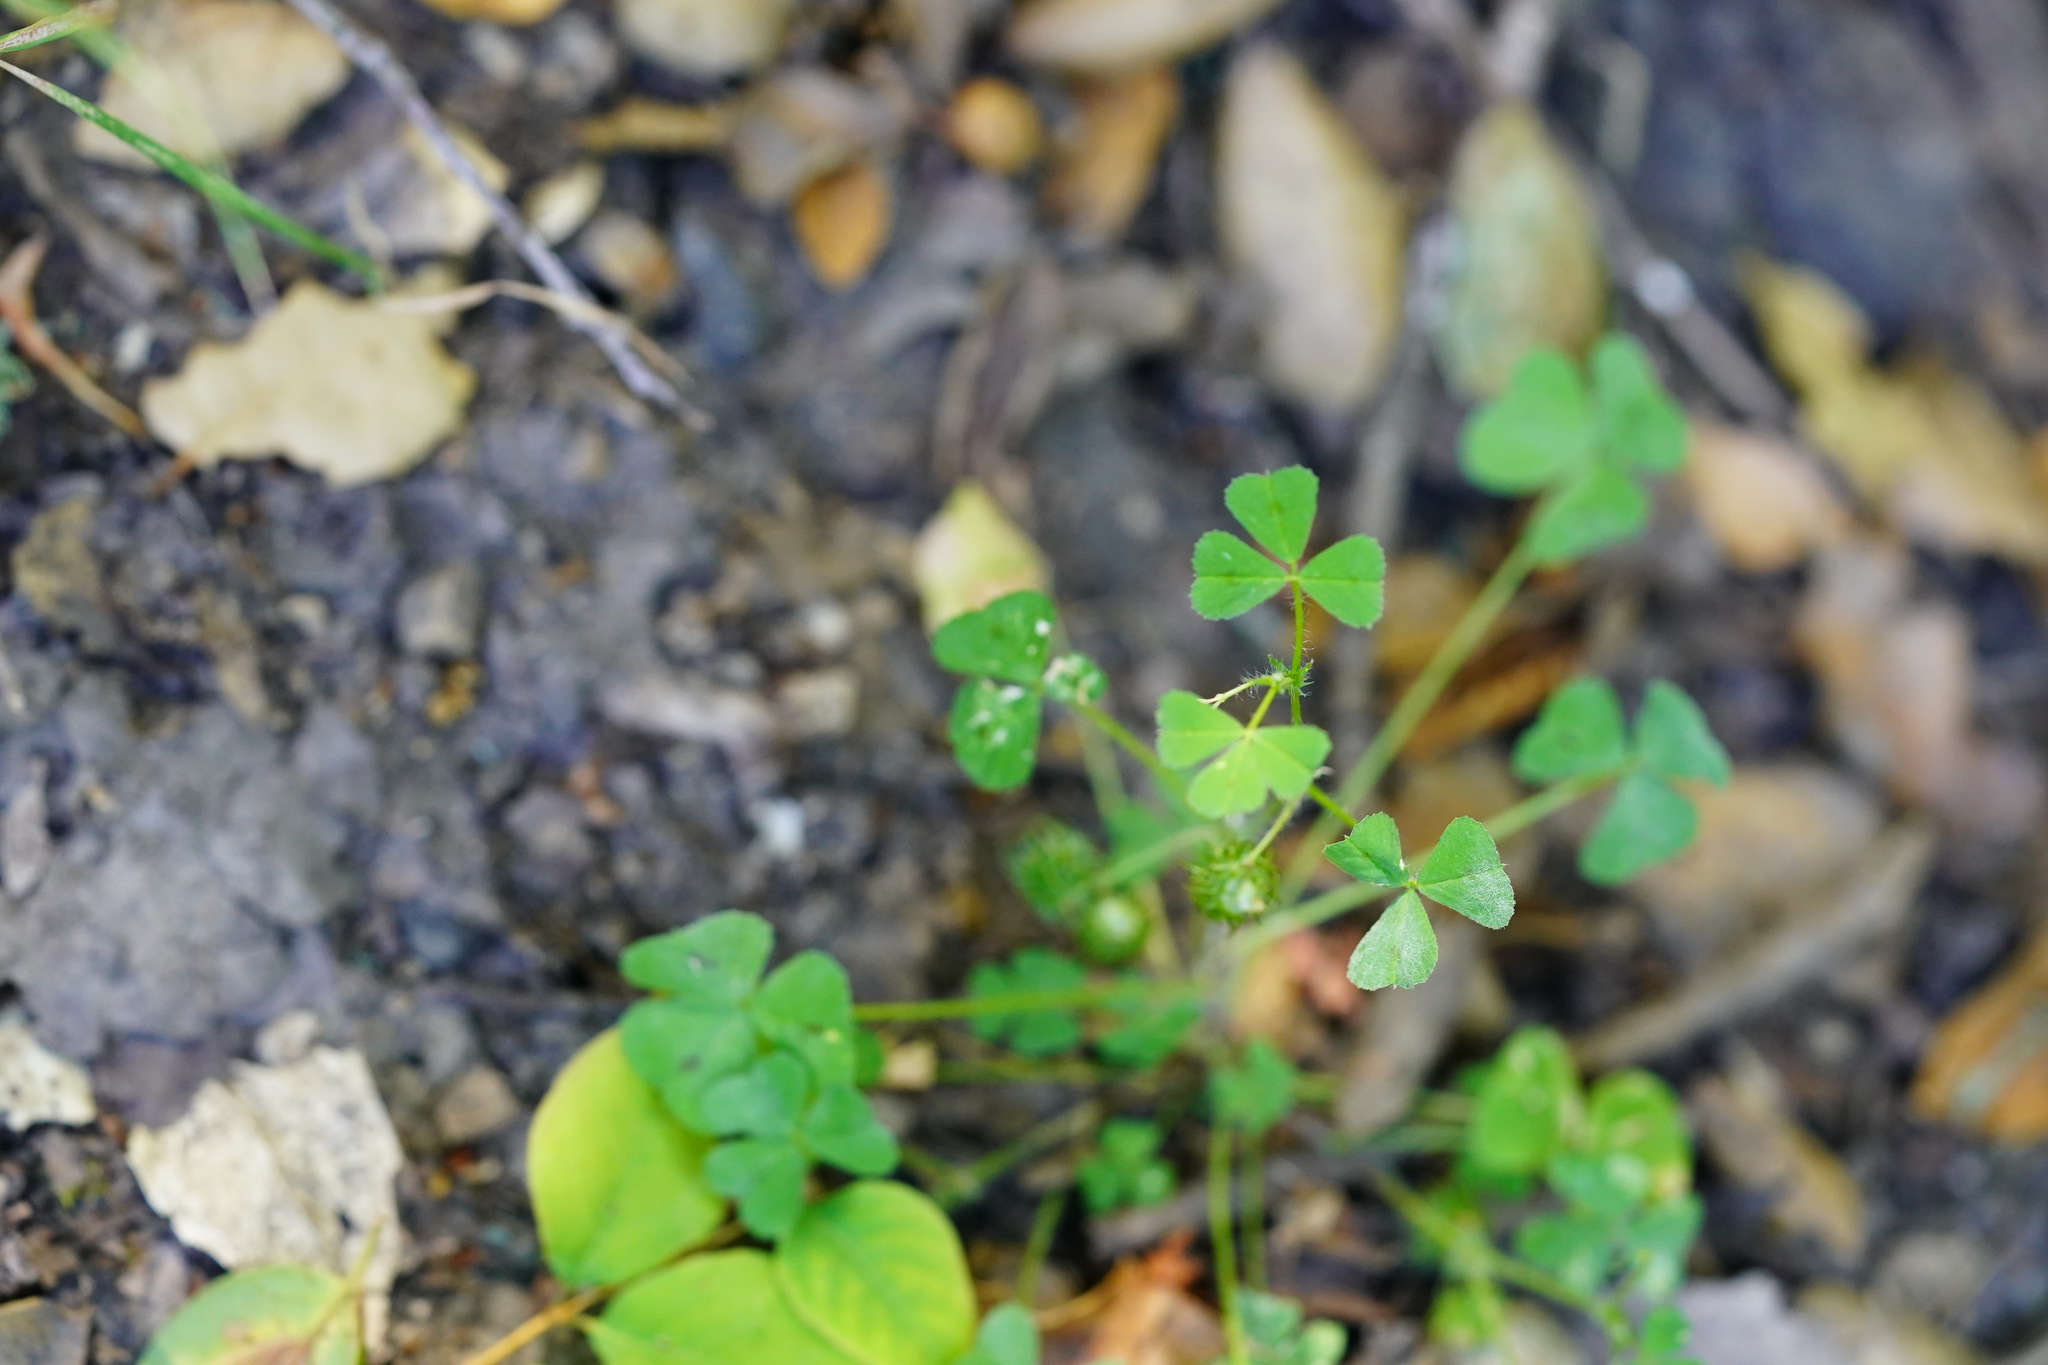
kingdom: Plantae
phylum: Tracheophyta
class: Magnoliopsida
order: Fabales
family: Fabaceae
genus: Medicago
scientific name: Medicago arabica
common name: Spotted medick
